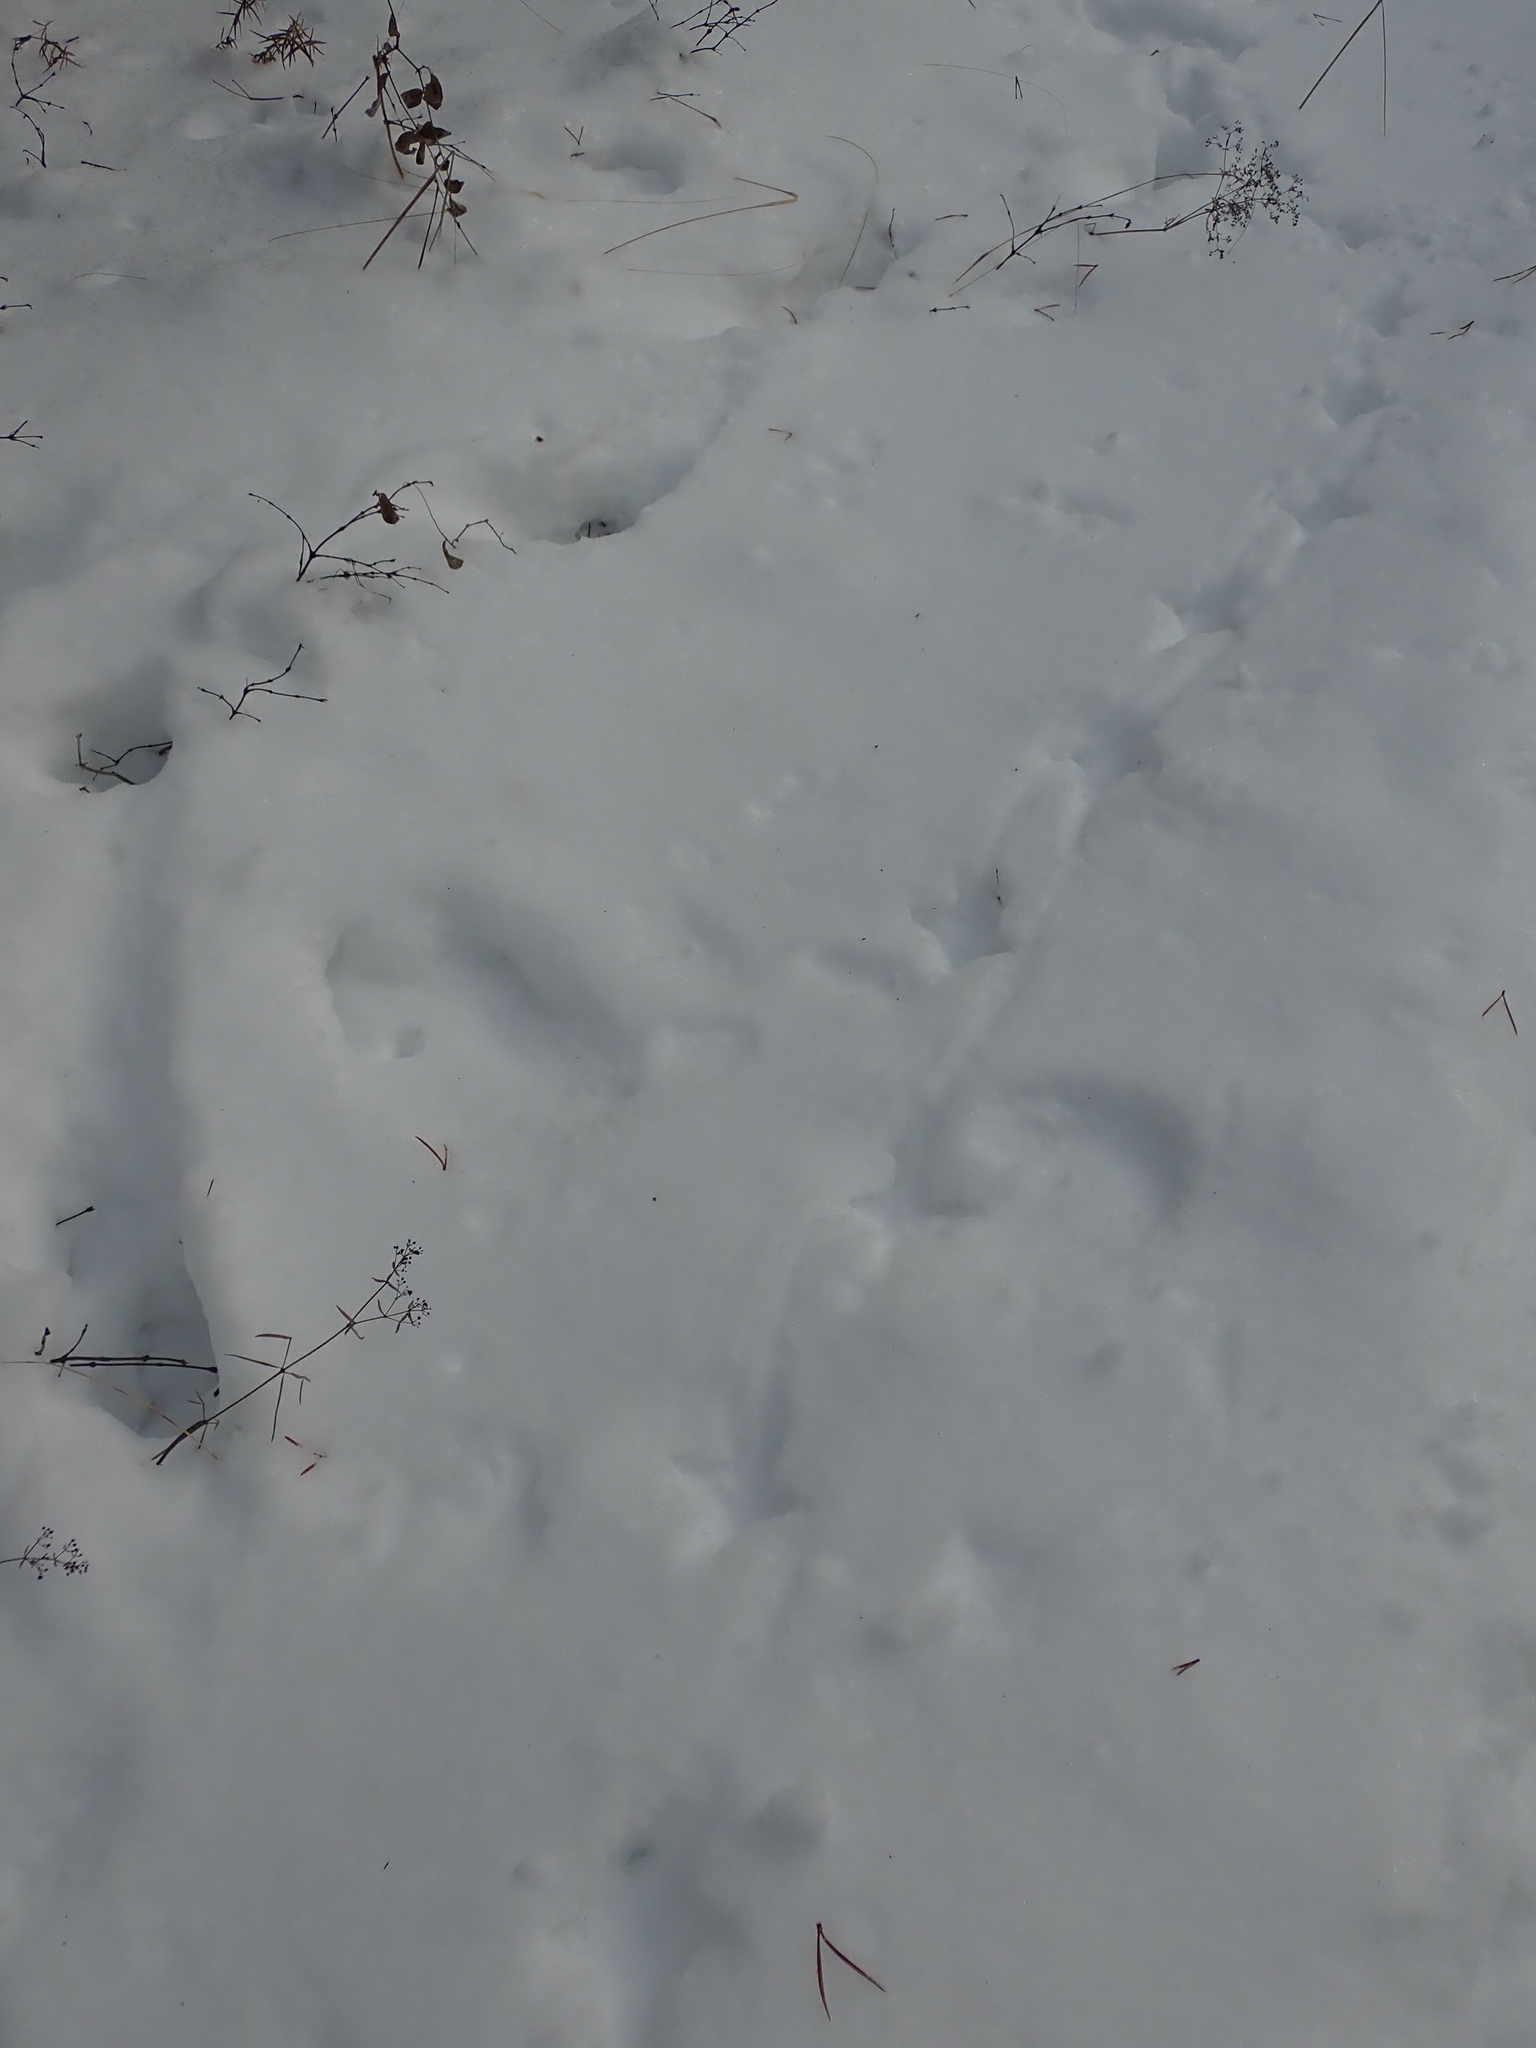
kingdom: Animalia
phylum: Chordata
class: Aves
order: Galliformes
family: Phasianidae
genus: Bonasa
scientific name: Bonasa umbellus
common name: Ruffed grouse
